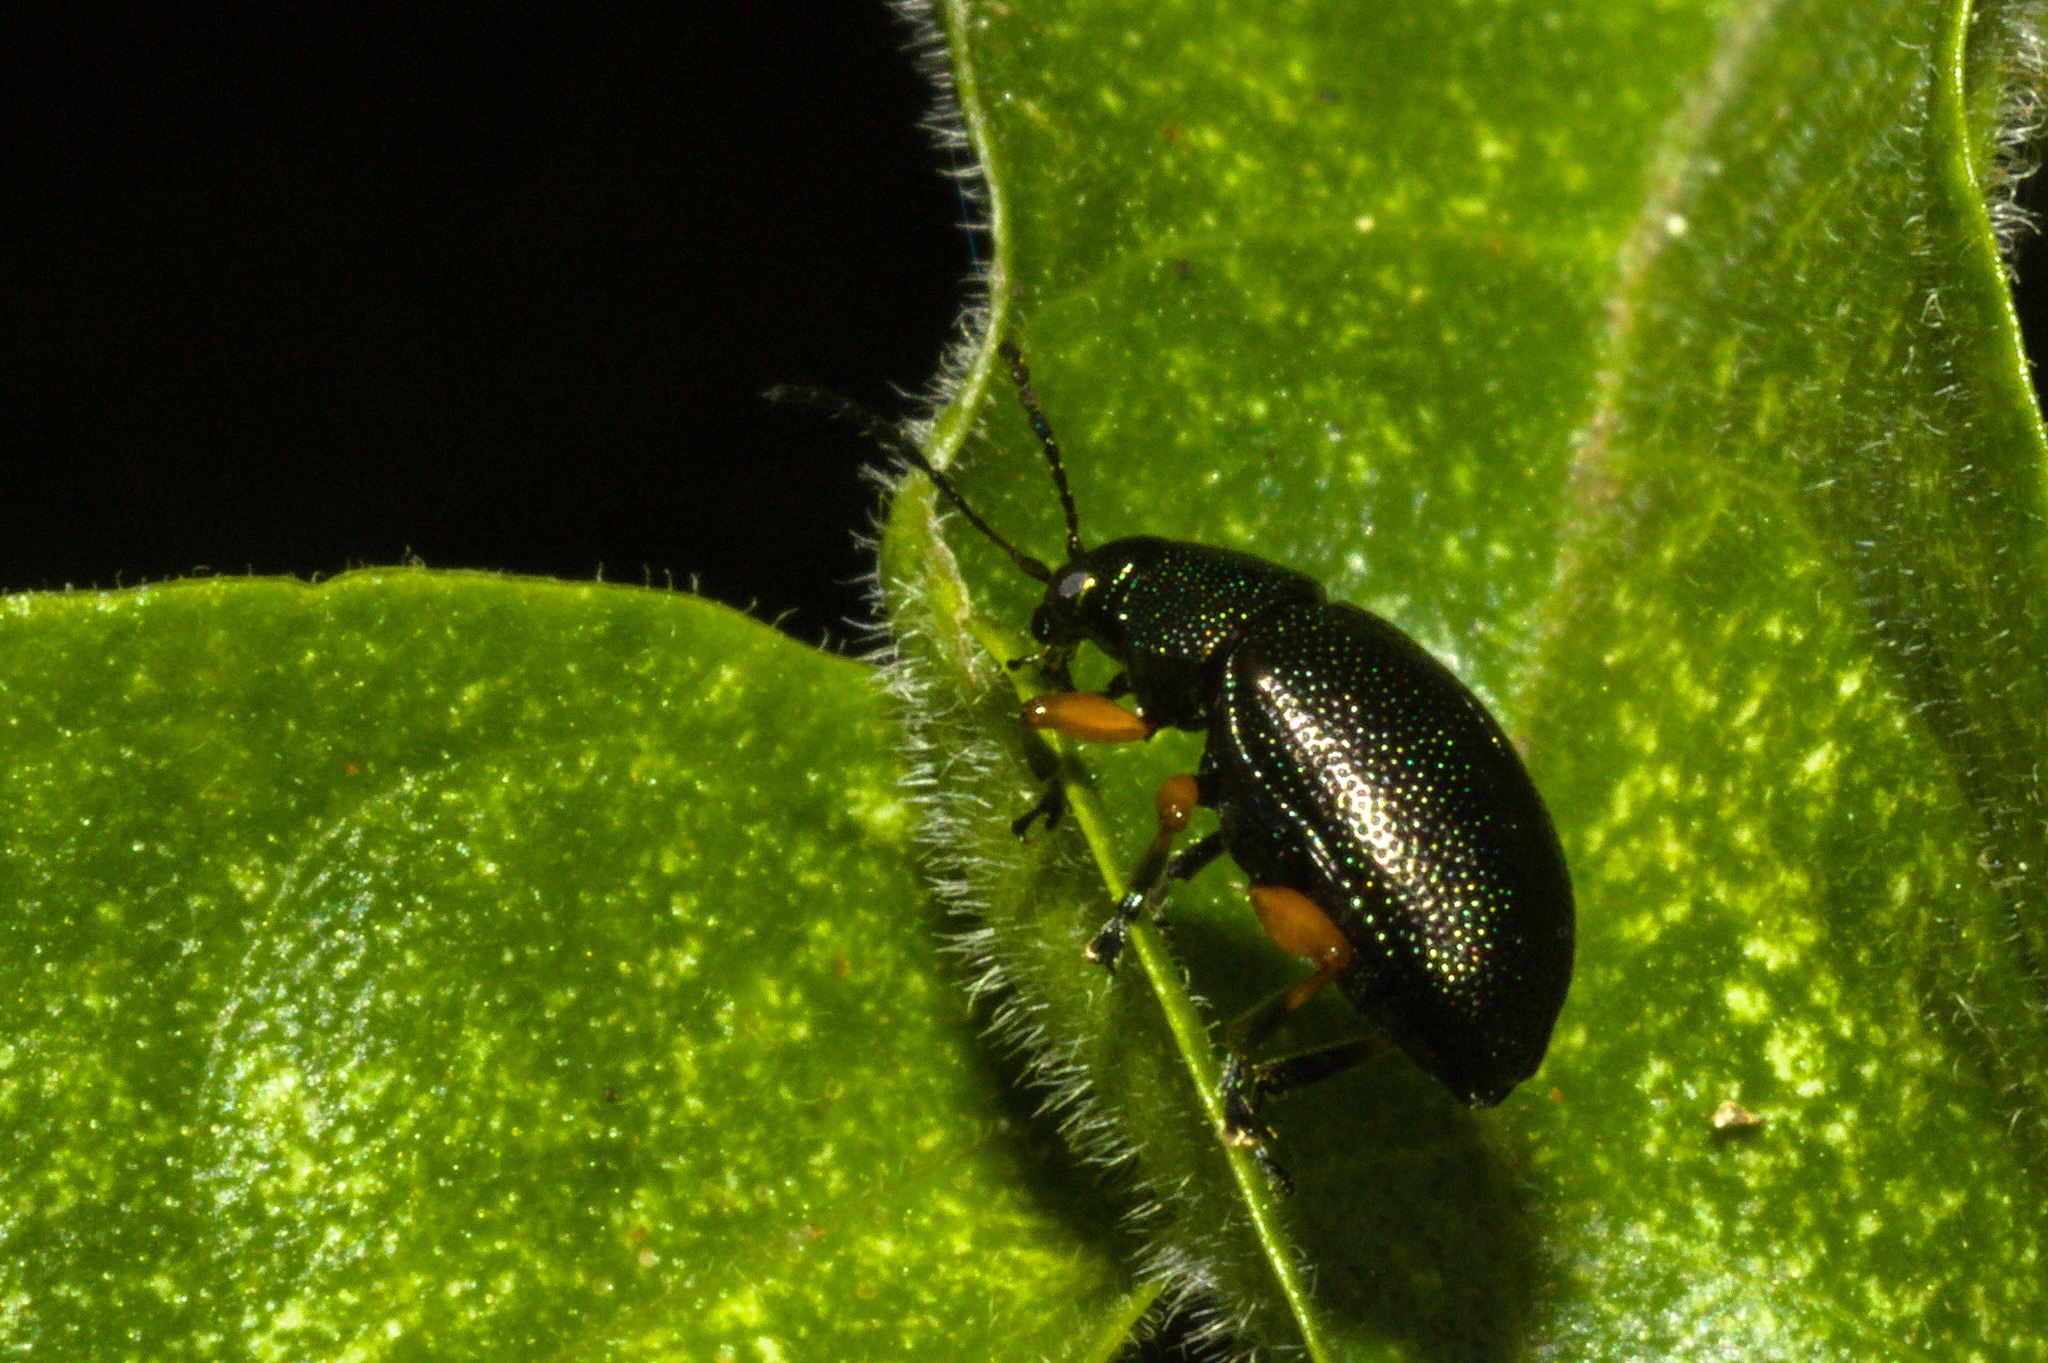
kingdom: Animalia
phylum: Arthropoda
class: Insecta
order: Coleoptera
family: Chrysomelidae
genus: Nodocolaspis
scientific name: Nodocolaspis
